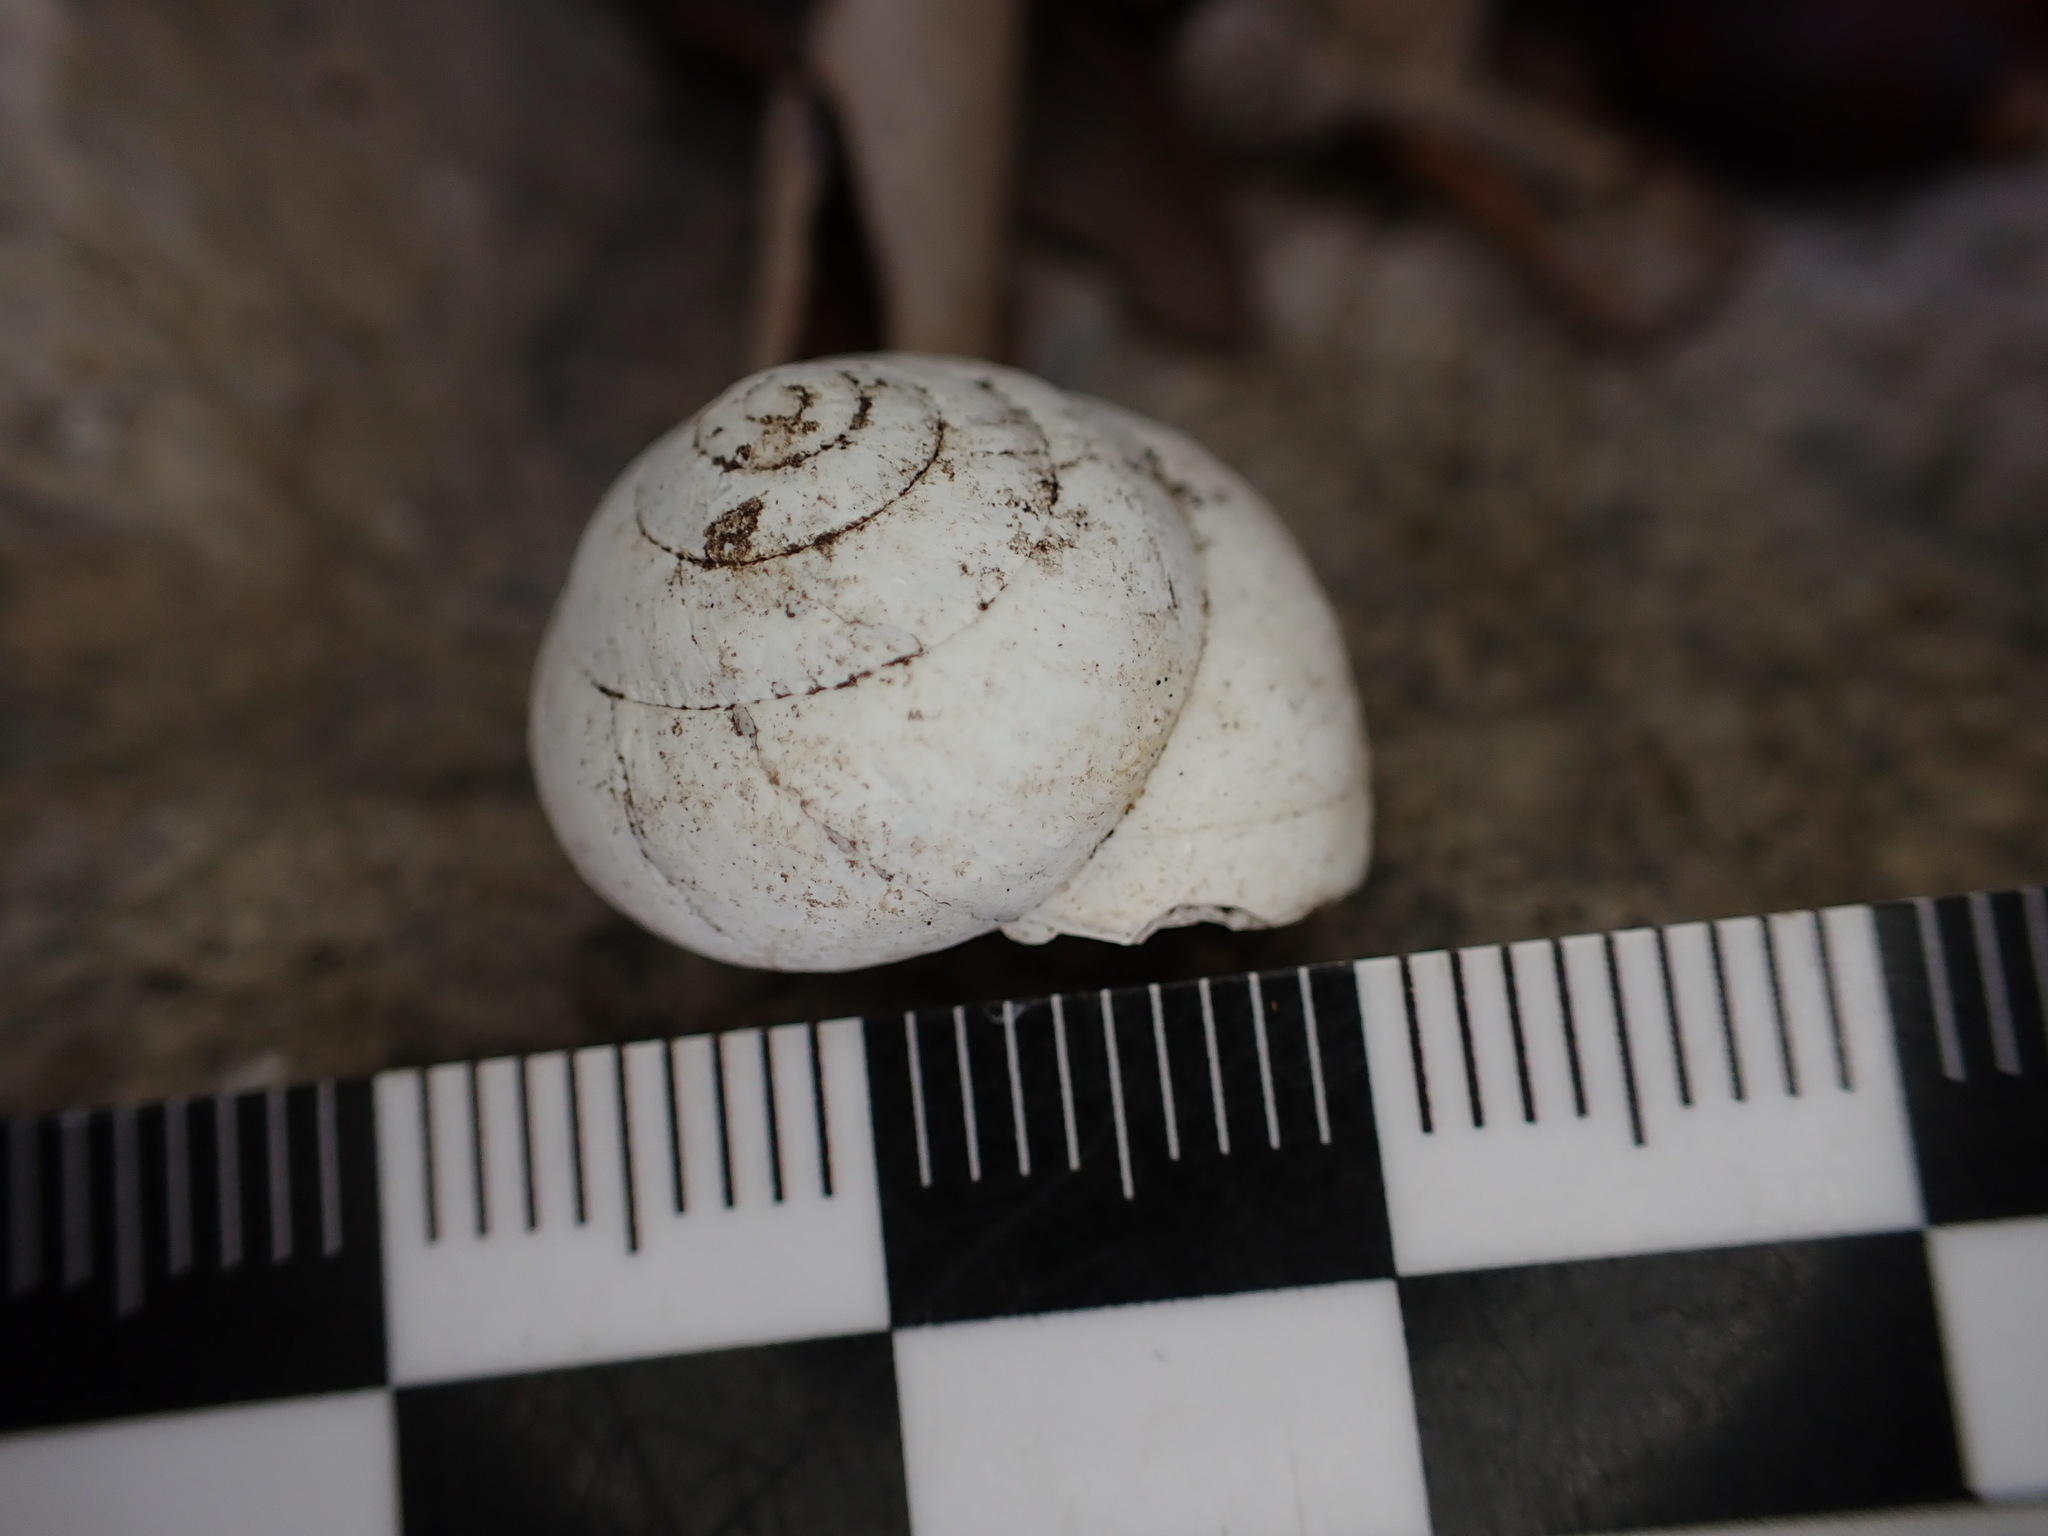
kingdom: Animalia
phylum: Mollusca
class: Gastropoda
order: Stylommatophora
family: Sphincterochilidae
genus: Sphincterochila
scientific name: Sphincterochila candidissima
